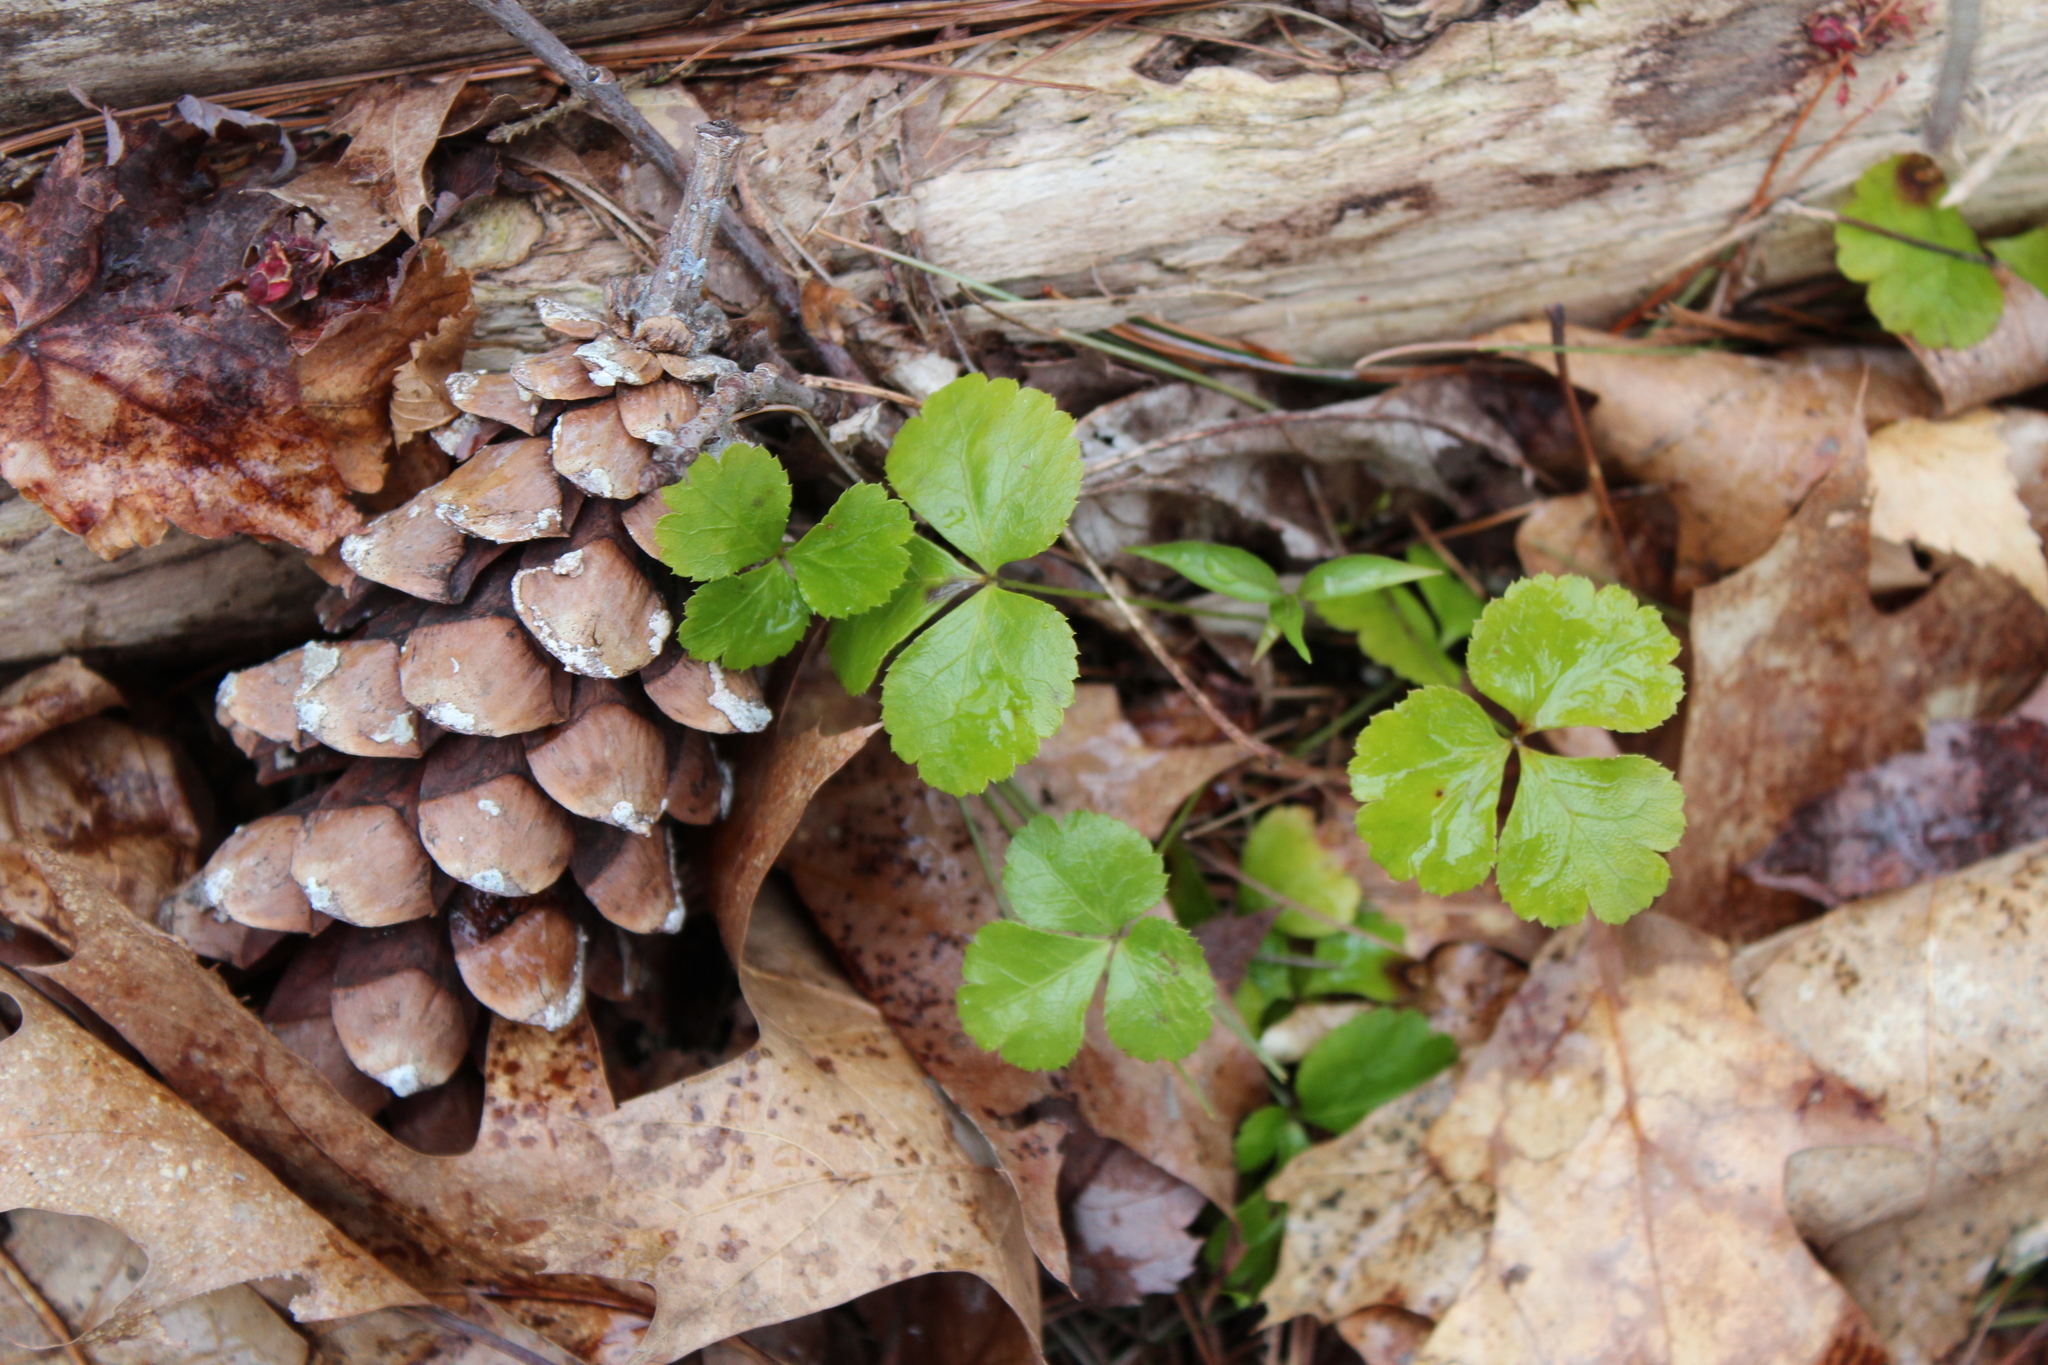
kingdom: Plantae
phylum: Tracheophyta
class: Magnoliopsida
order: Ranunculales
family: Ranunculaceae
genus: Coptis
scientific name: Coptis trifolia
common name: Canker-root
